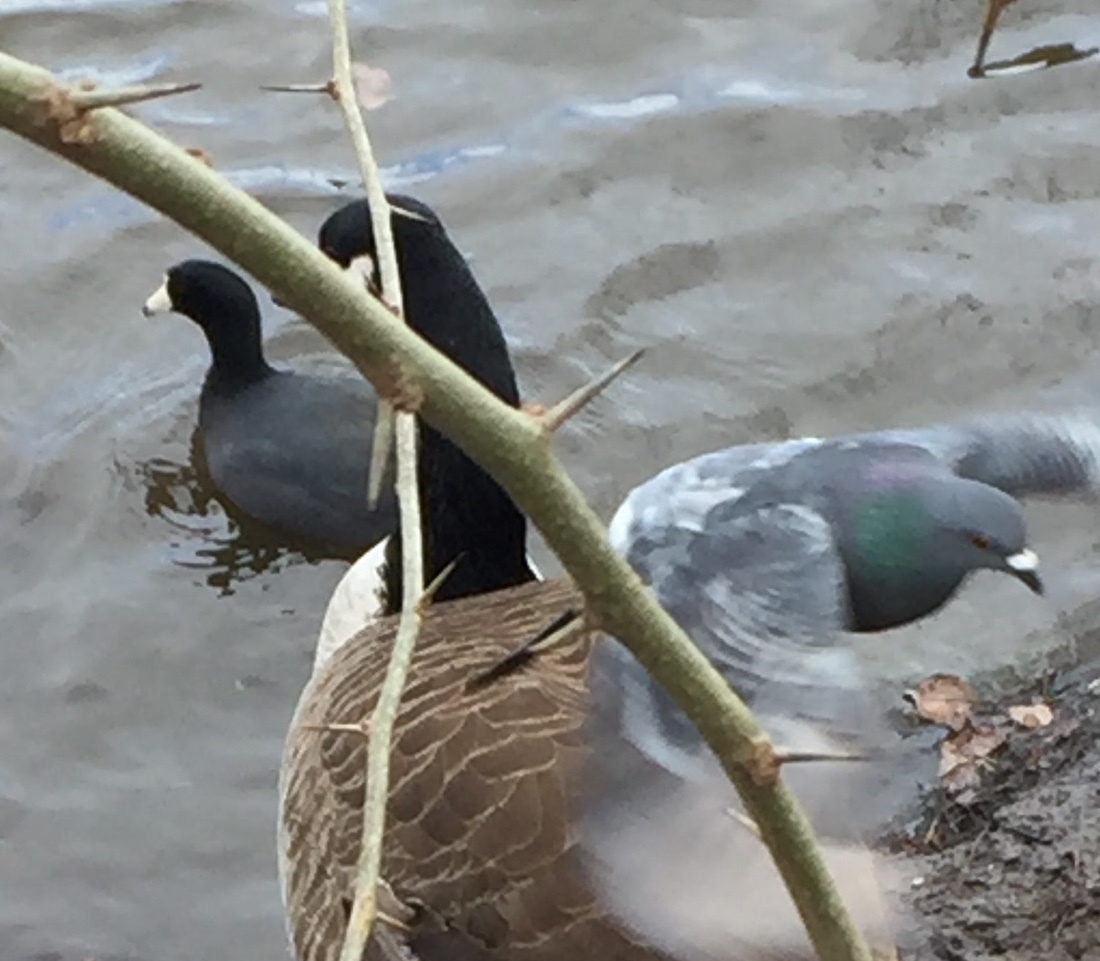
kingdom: Animalia
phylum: Chordata
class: Aves
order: Gruiformes
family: Rallidae
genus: Fulica
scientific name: Fulica americana
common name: American coot
